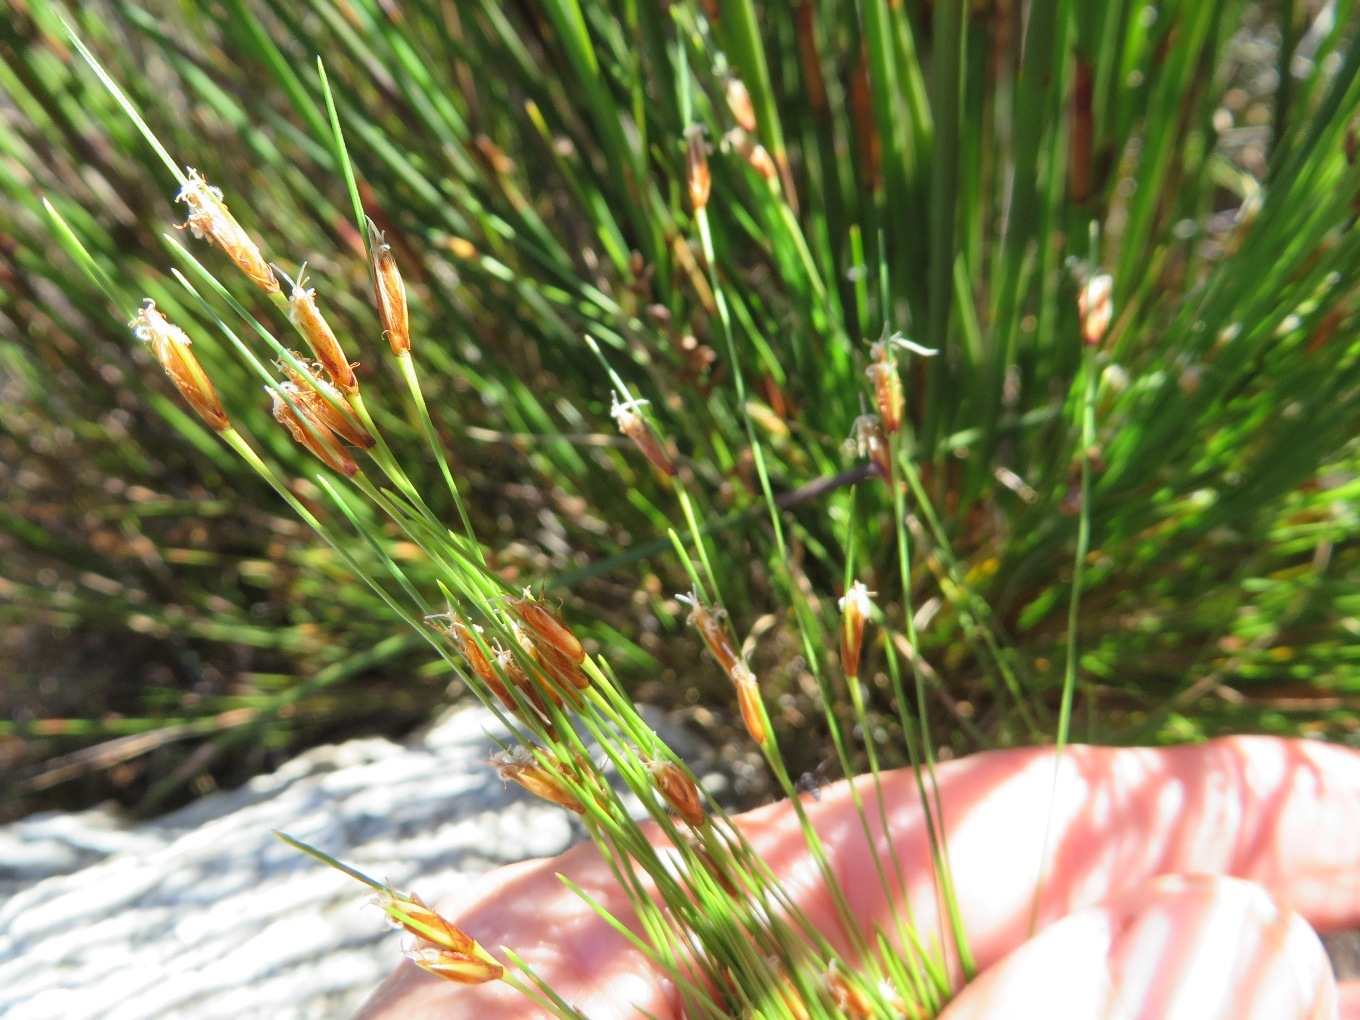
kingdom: Plantae
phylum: Tracheophyta
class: Liliopsida
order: Poales
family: Cyperaceae
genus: Ficinia
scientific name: Ficinia zeyheri
